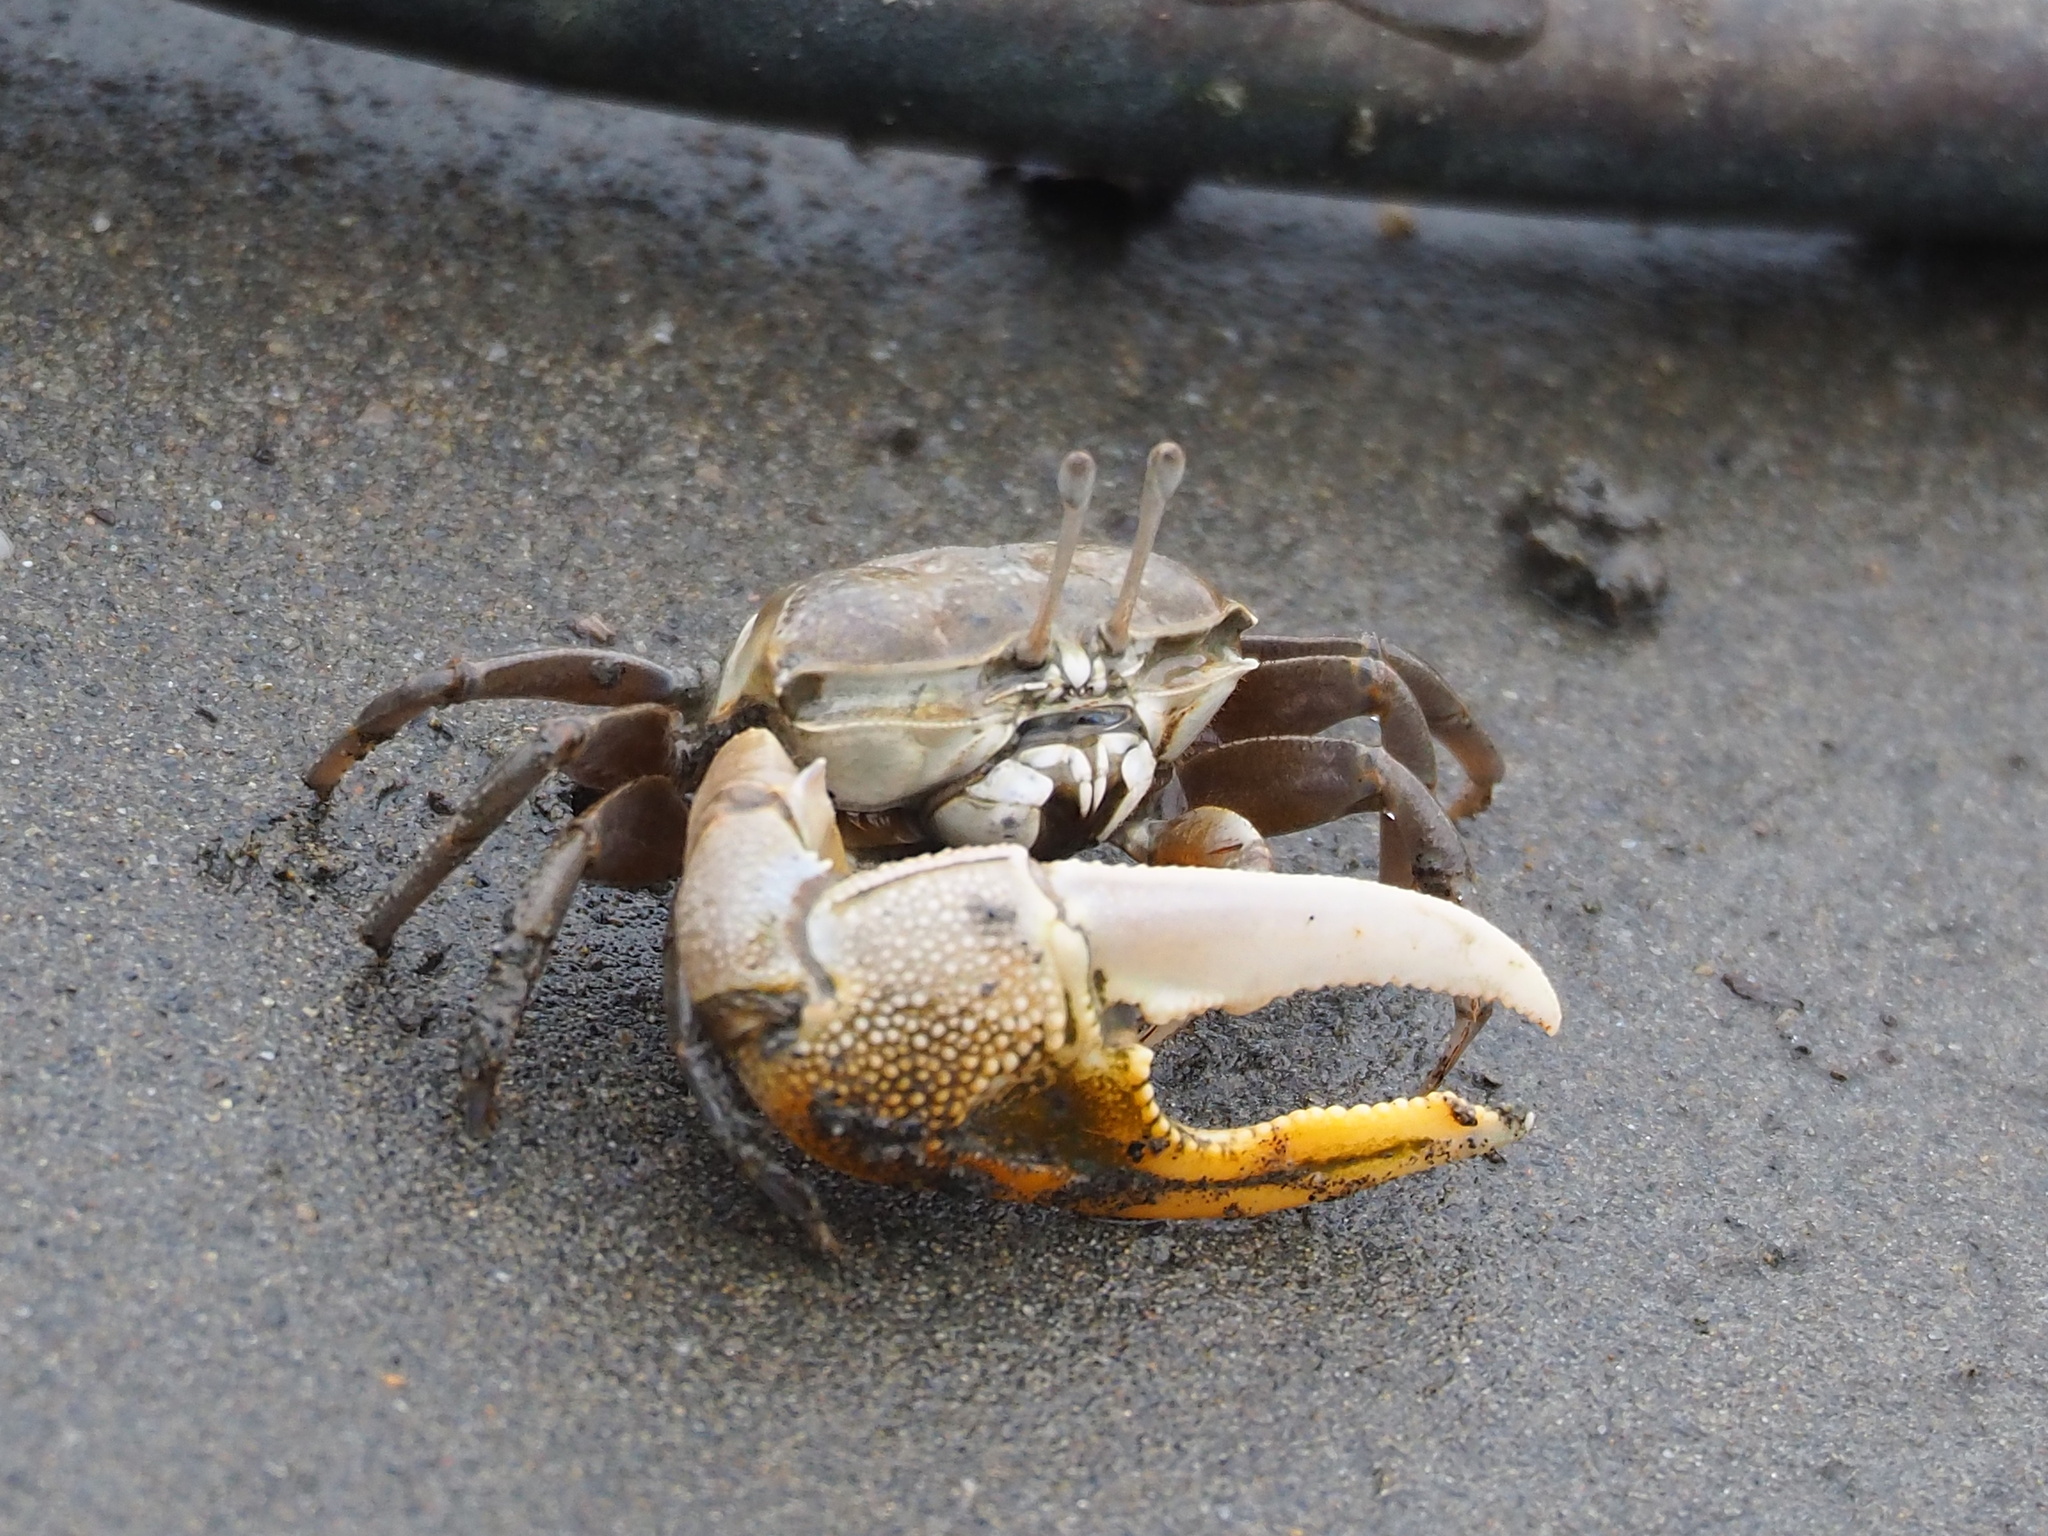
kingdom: Animalia
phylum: Arthropoda
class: Malacostraca
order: Decapoda
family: Ocypodidae
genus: Gelasimus
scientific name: Gelasimus borealis
